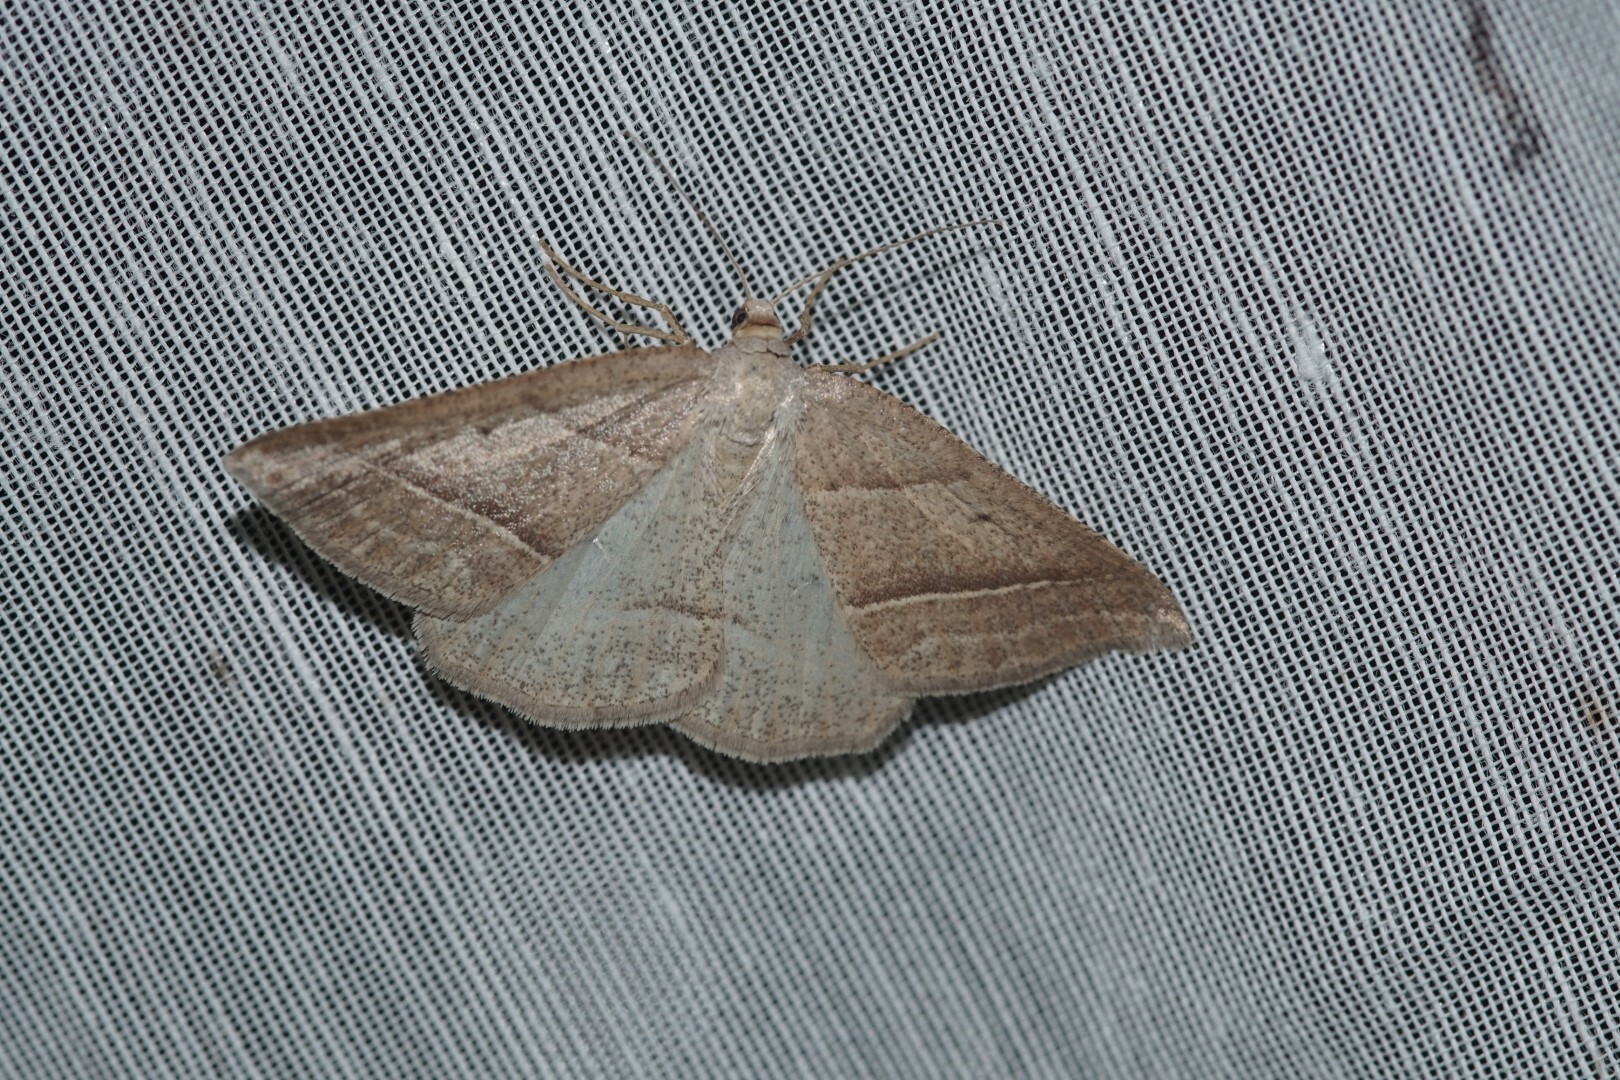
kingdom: Animalia
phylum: Arthropoda
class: Insecta
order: Lepidoptera
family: Pterophoridae
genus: Pterophorus
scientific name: Pterophorus Petrophora chlorosata
